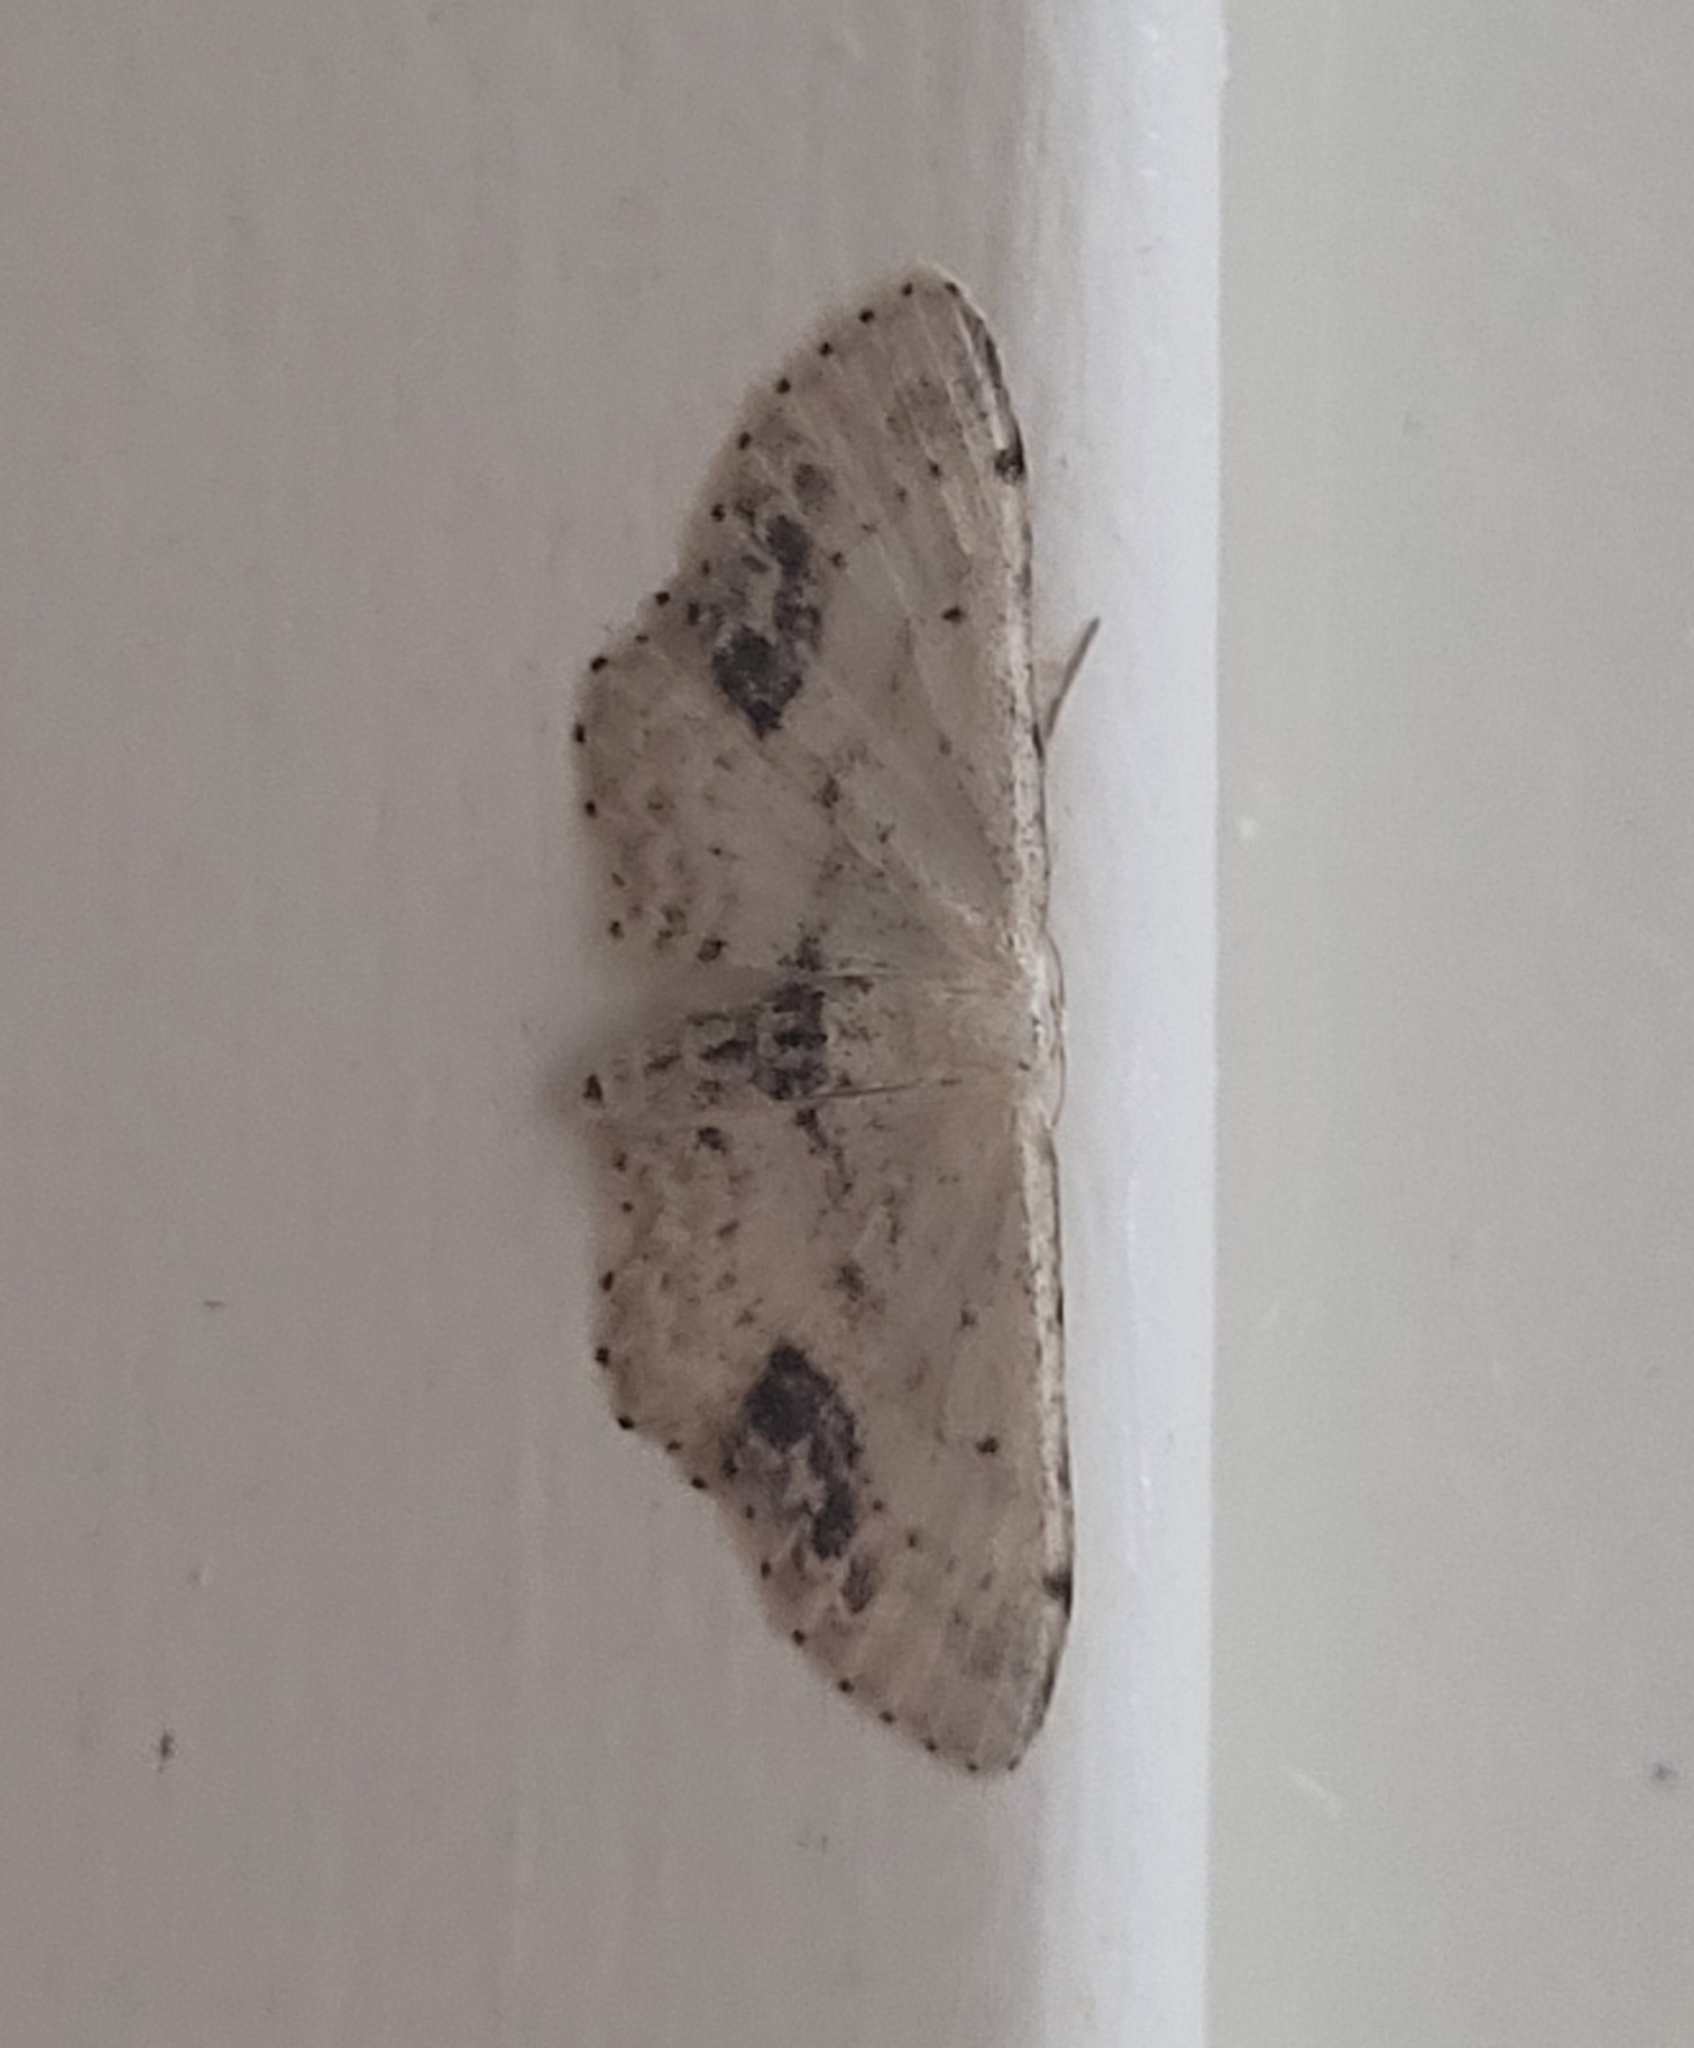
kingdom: Animalia
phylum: Arthropoda
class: Insecta
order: Lepidoptera
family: Geometridae
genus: Idaea
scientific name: Idaea dimidiata
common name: Single-dotted wave
